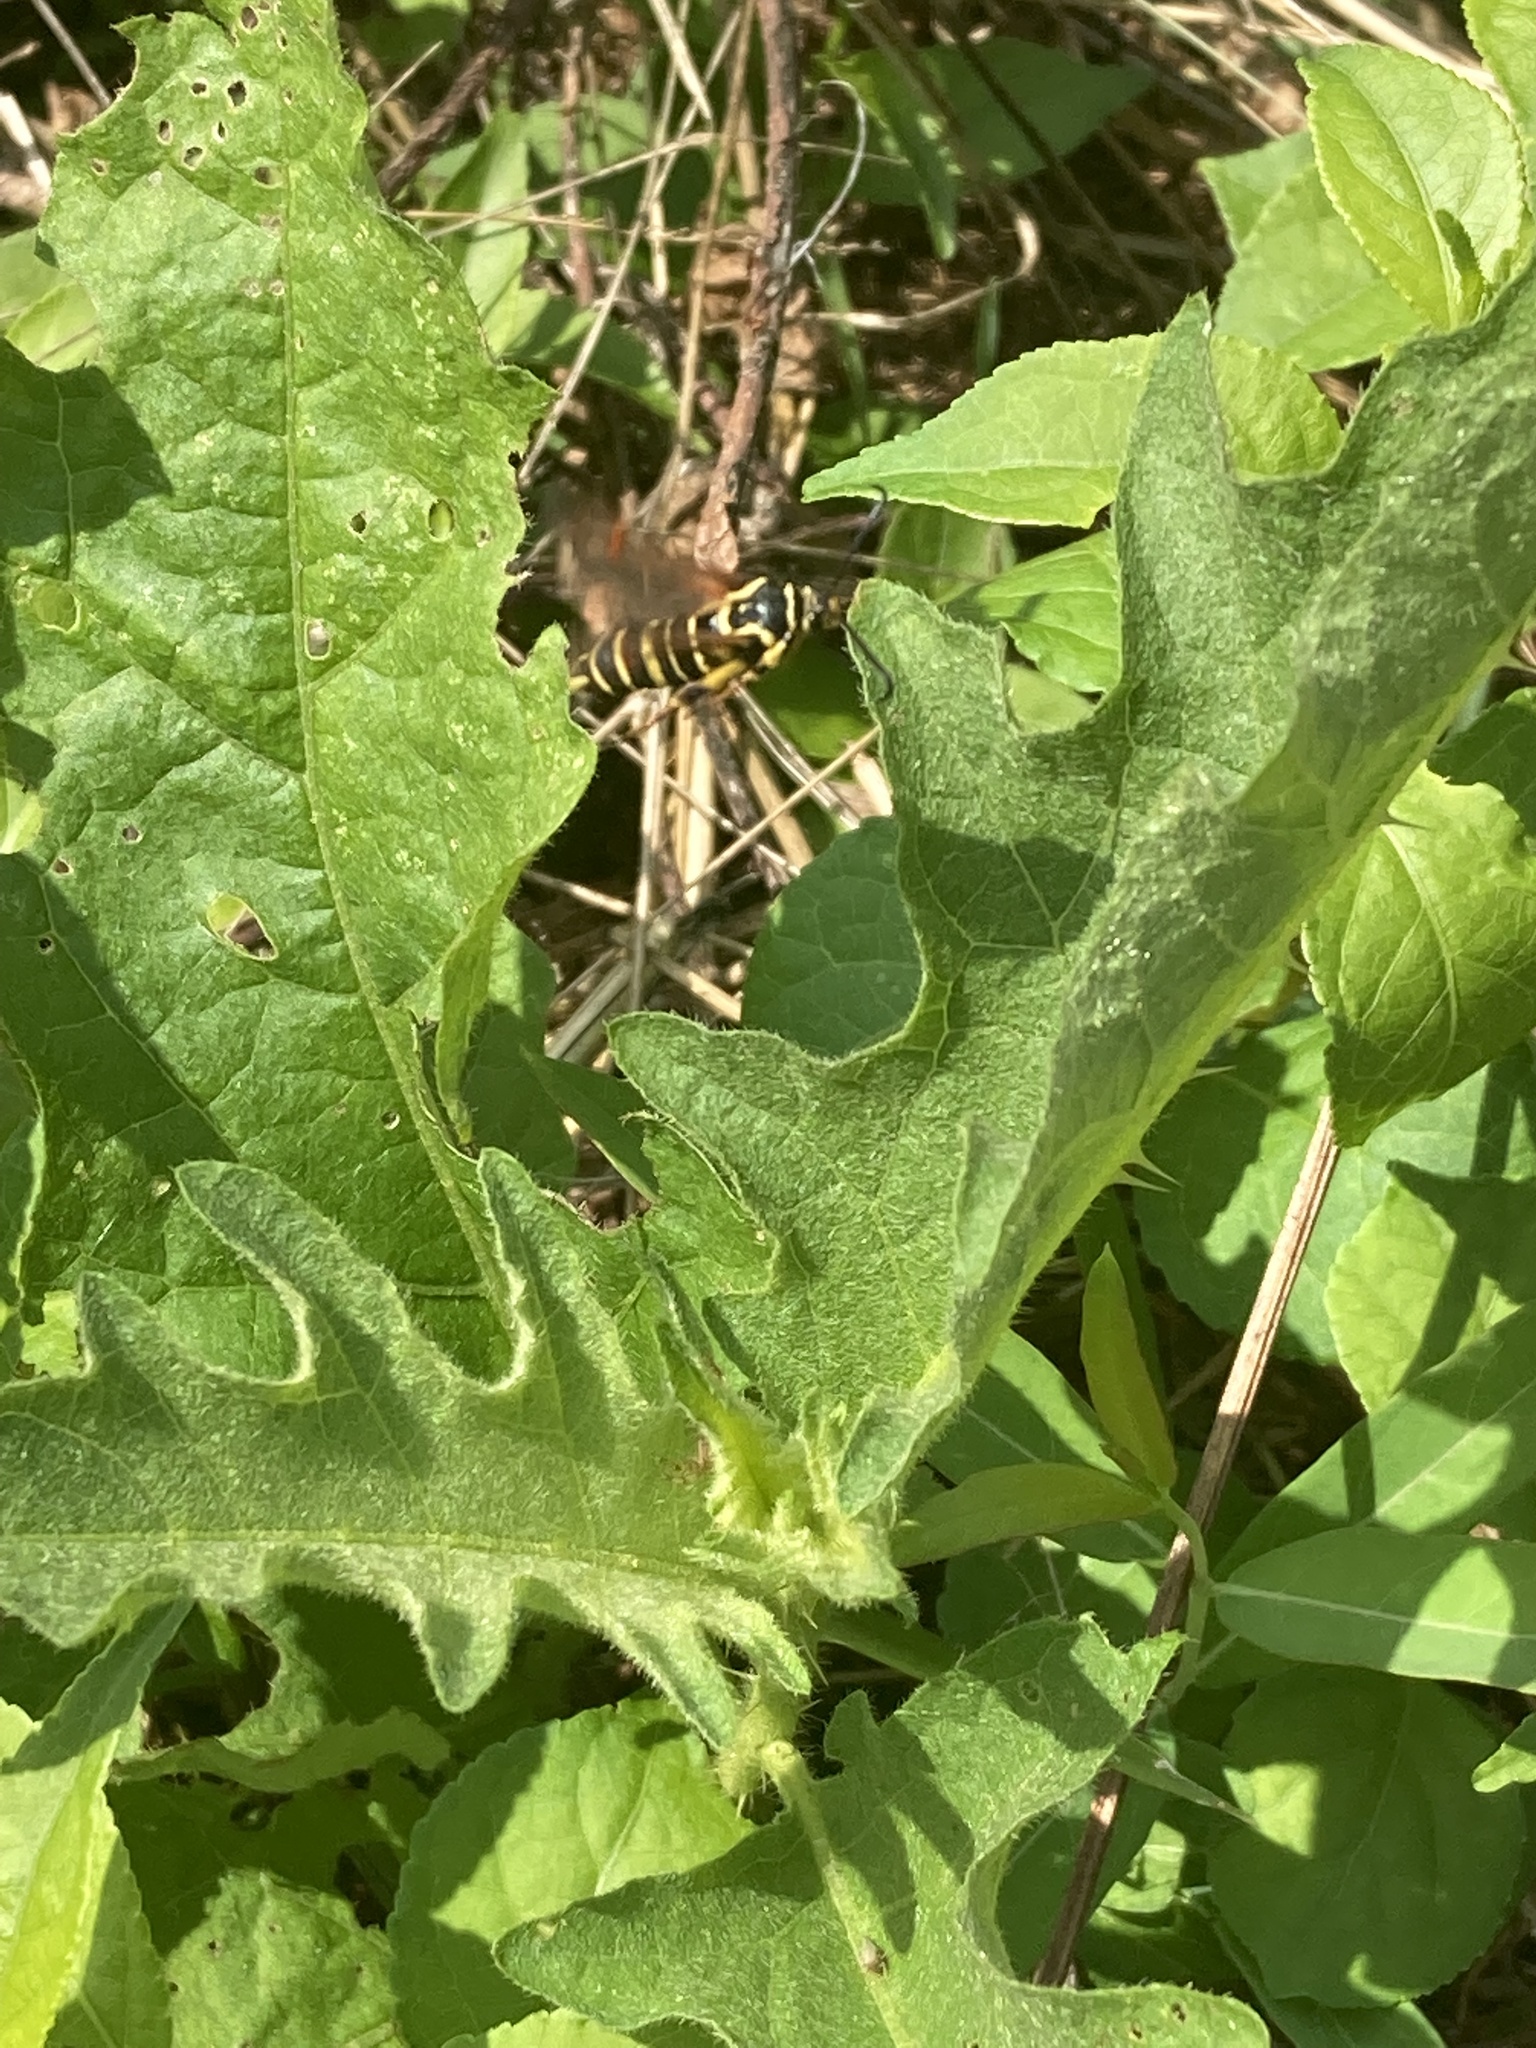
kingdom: Animalia
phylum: Arthropoda
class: Insecta
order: Lepidoptera
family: Sesiidae
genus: Synanthedon
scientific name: Synanthedon rileyana
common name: Riley's clearwing moth
